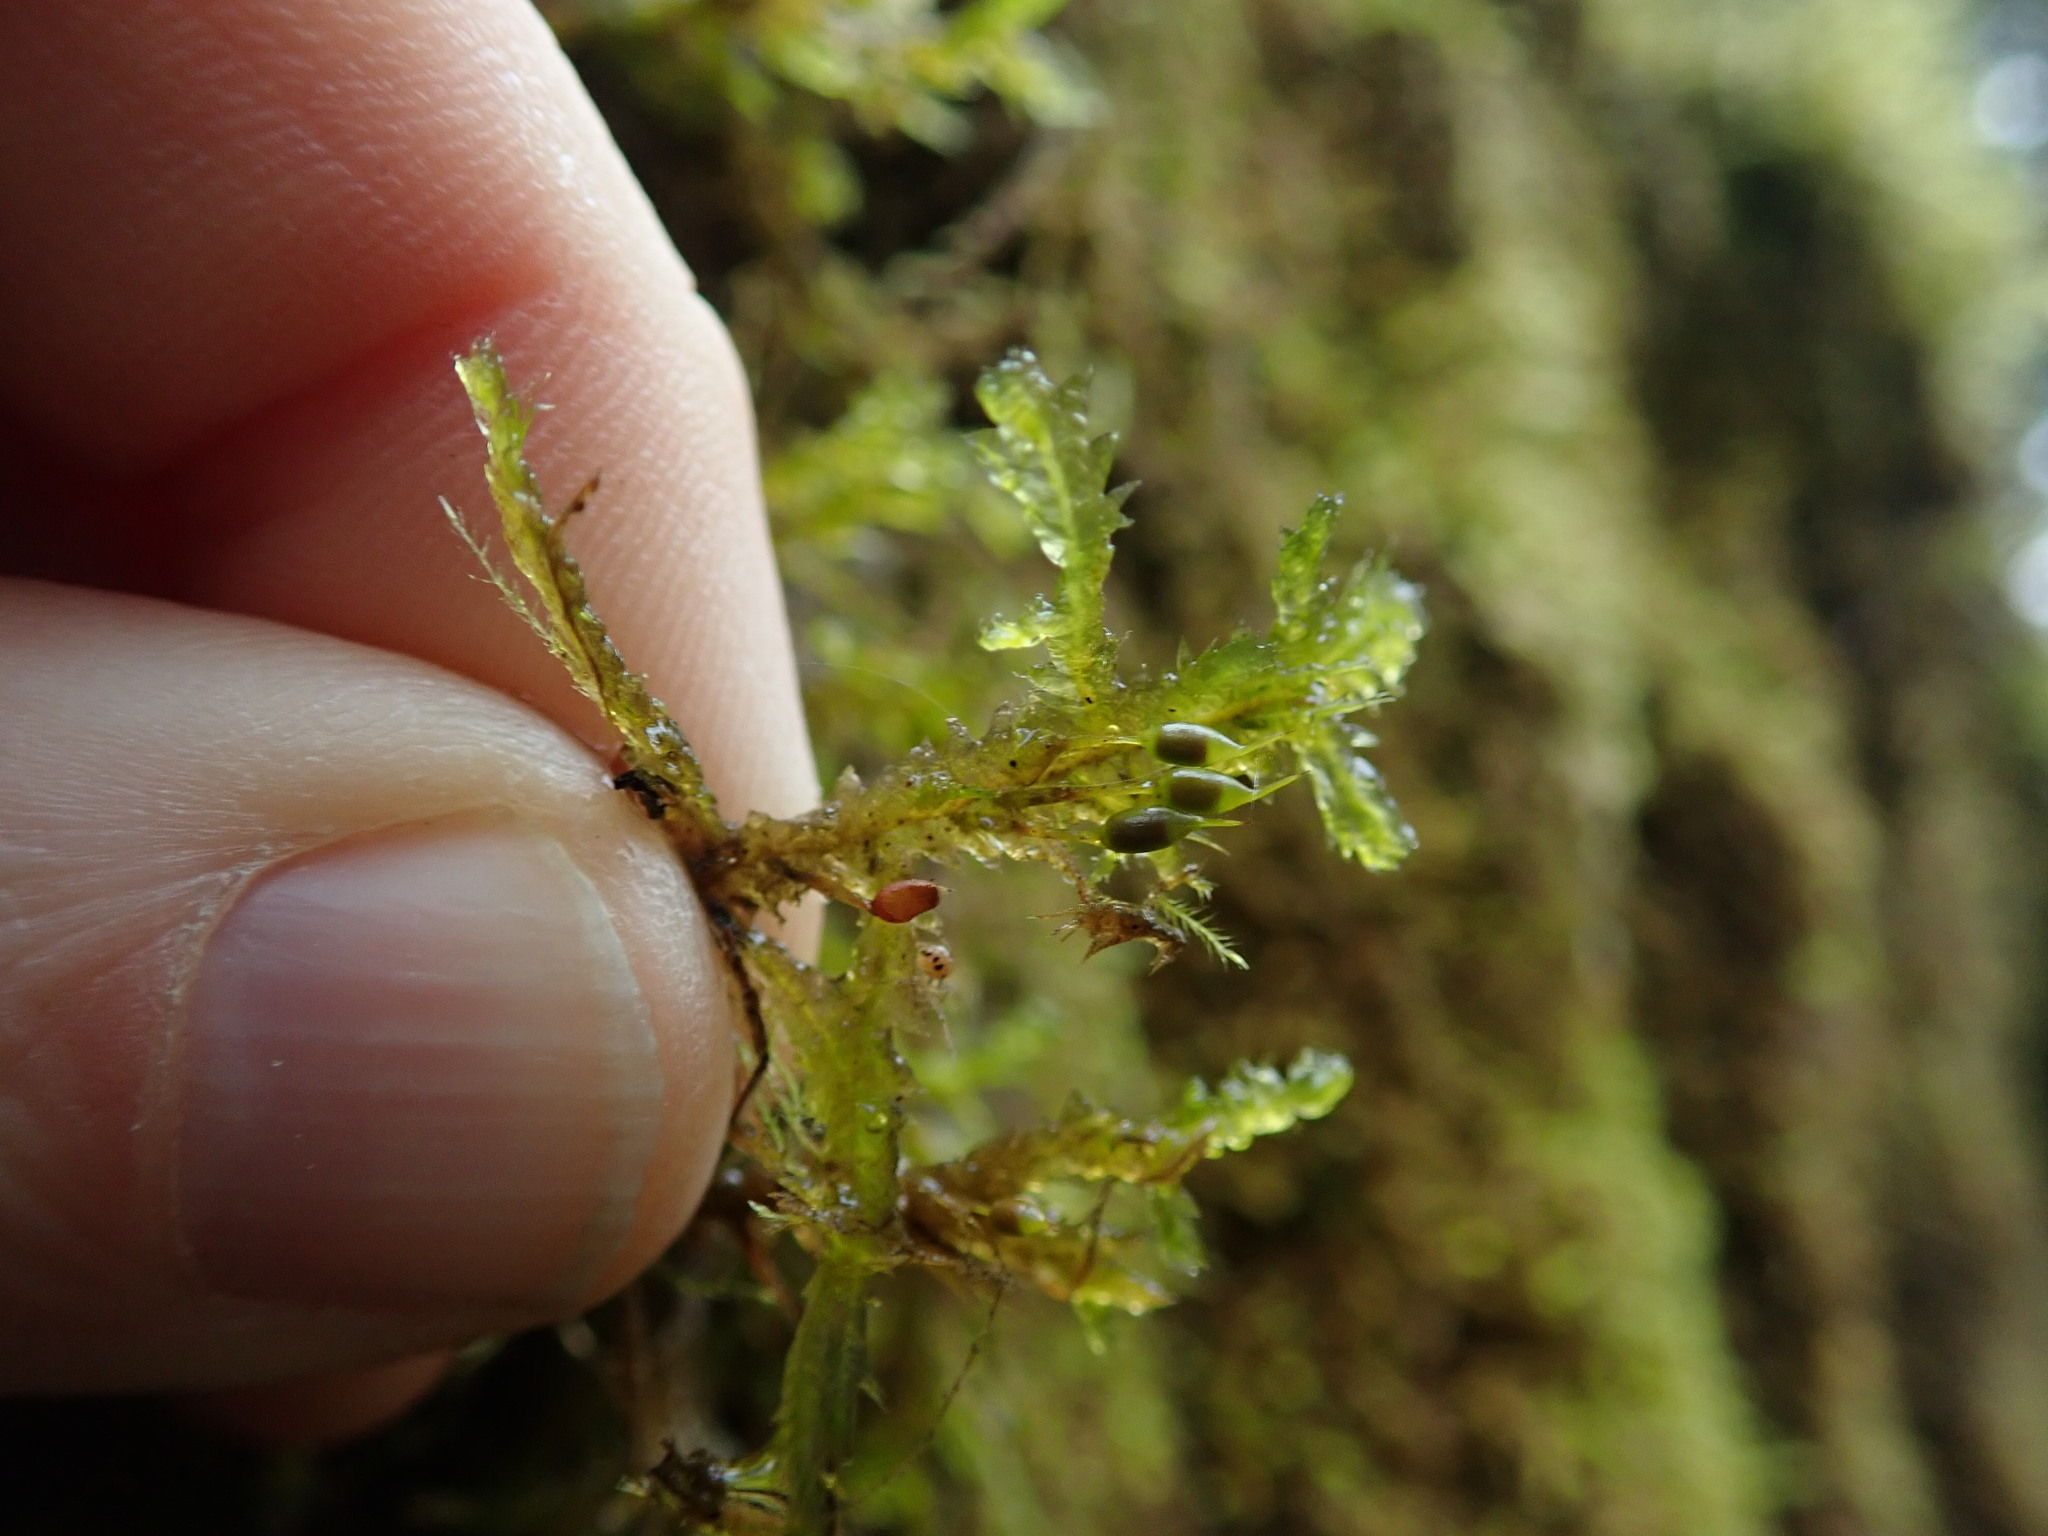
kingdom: Plantae
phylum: Bryophyta
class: Bryopsida
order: Hypnales
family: Neckeraceae
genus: Neckera
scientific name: Neckera douglasii
